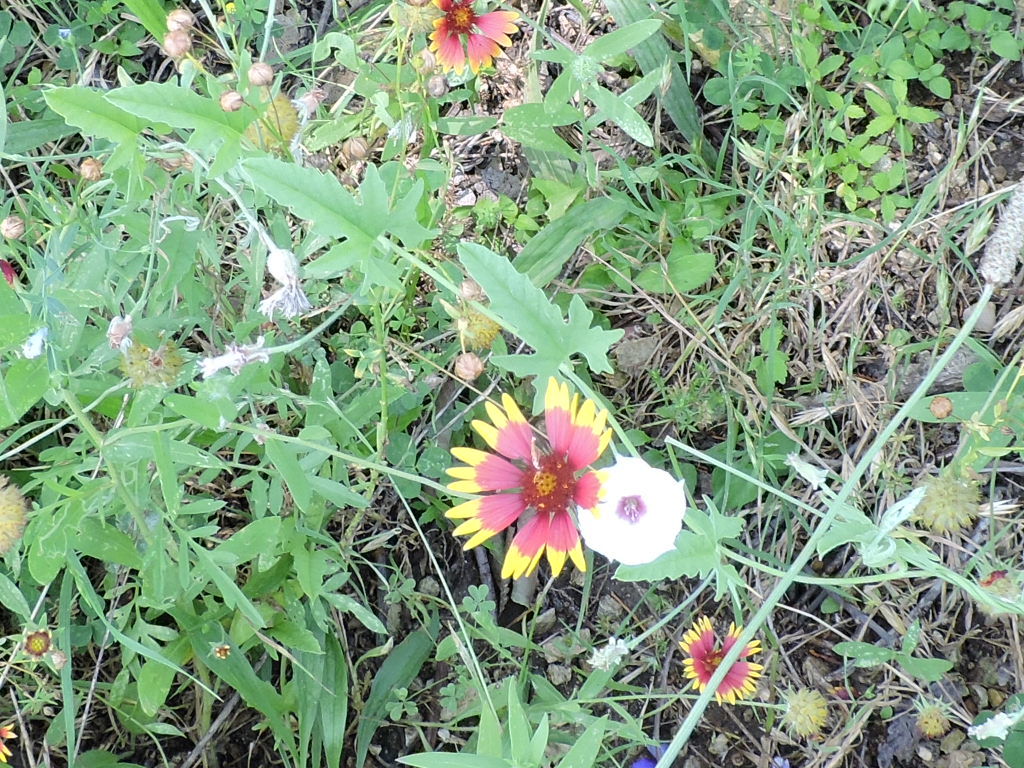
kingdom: Plantae
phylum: Tracheophyta
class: Magnoliopsida
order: Solanales
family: Convolvulaceae
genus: Convolvulus
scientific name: Convolvulus equitans
